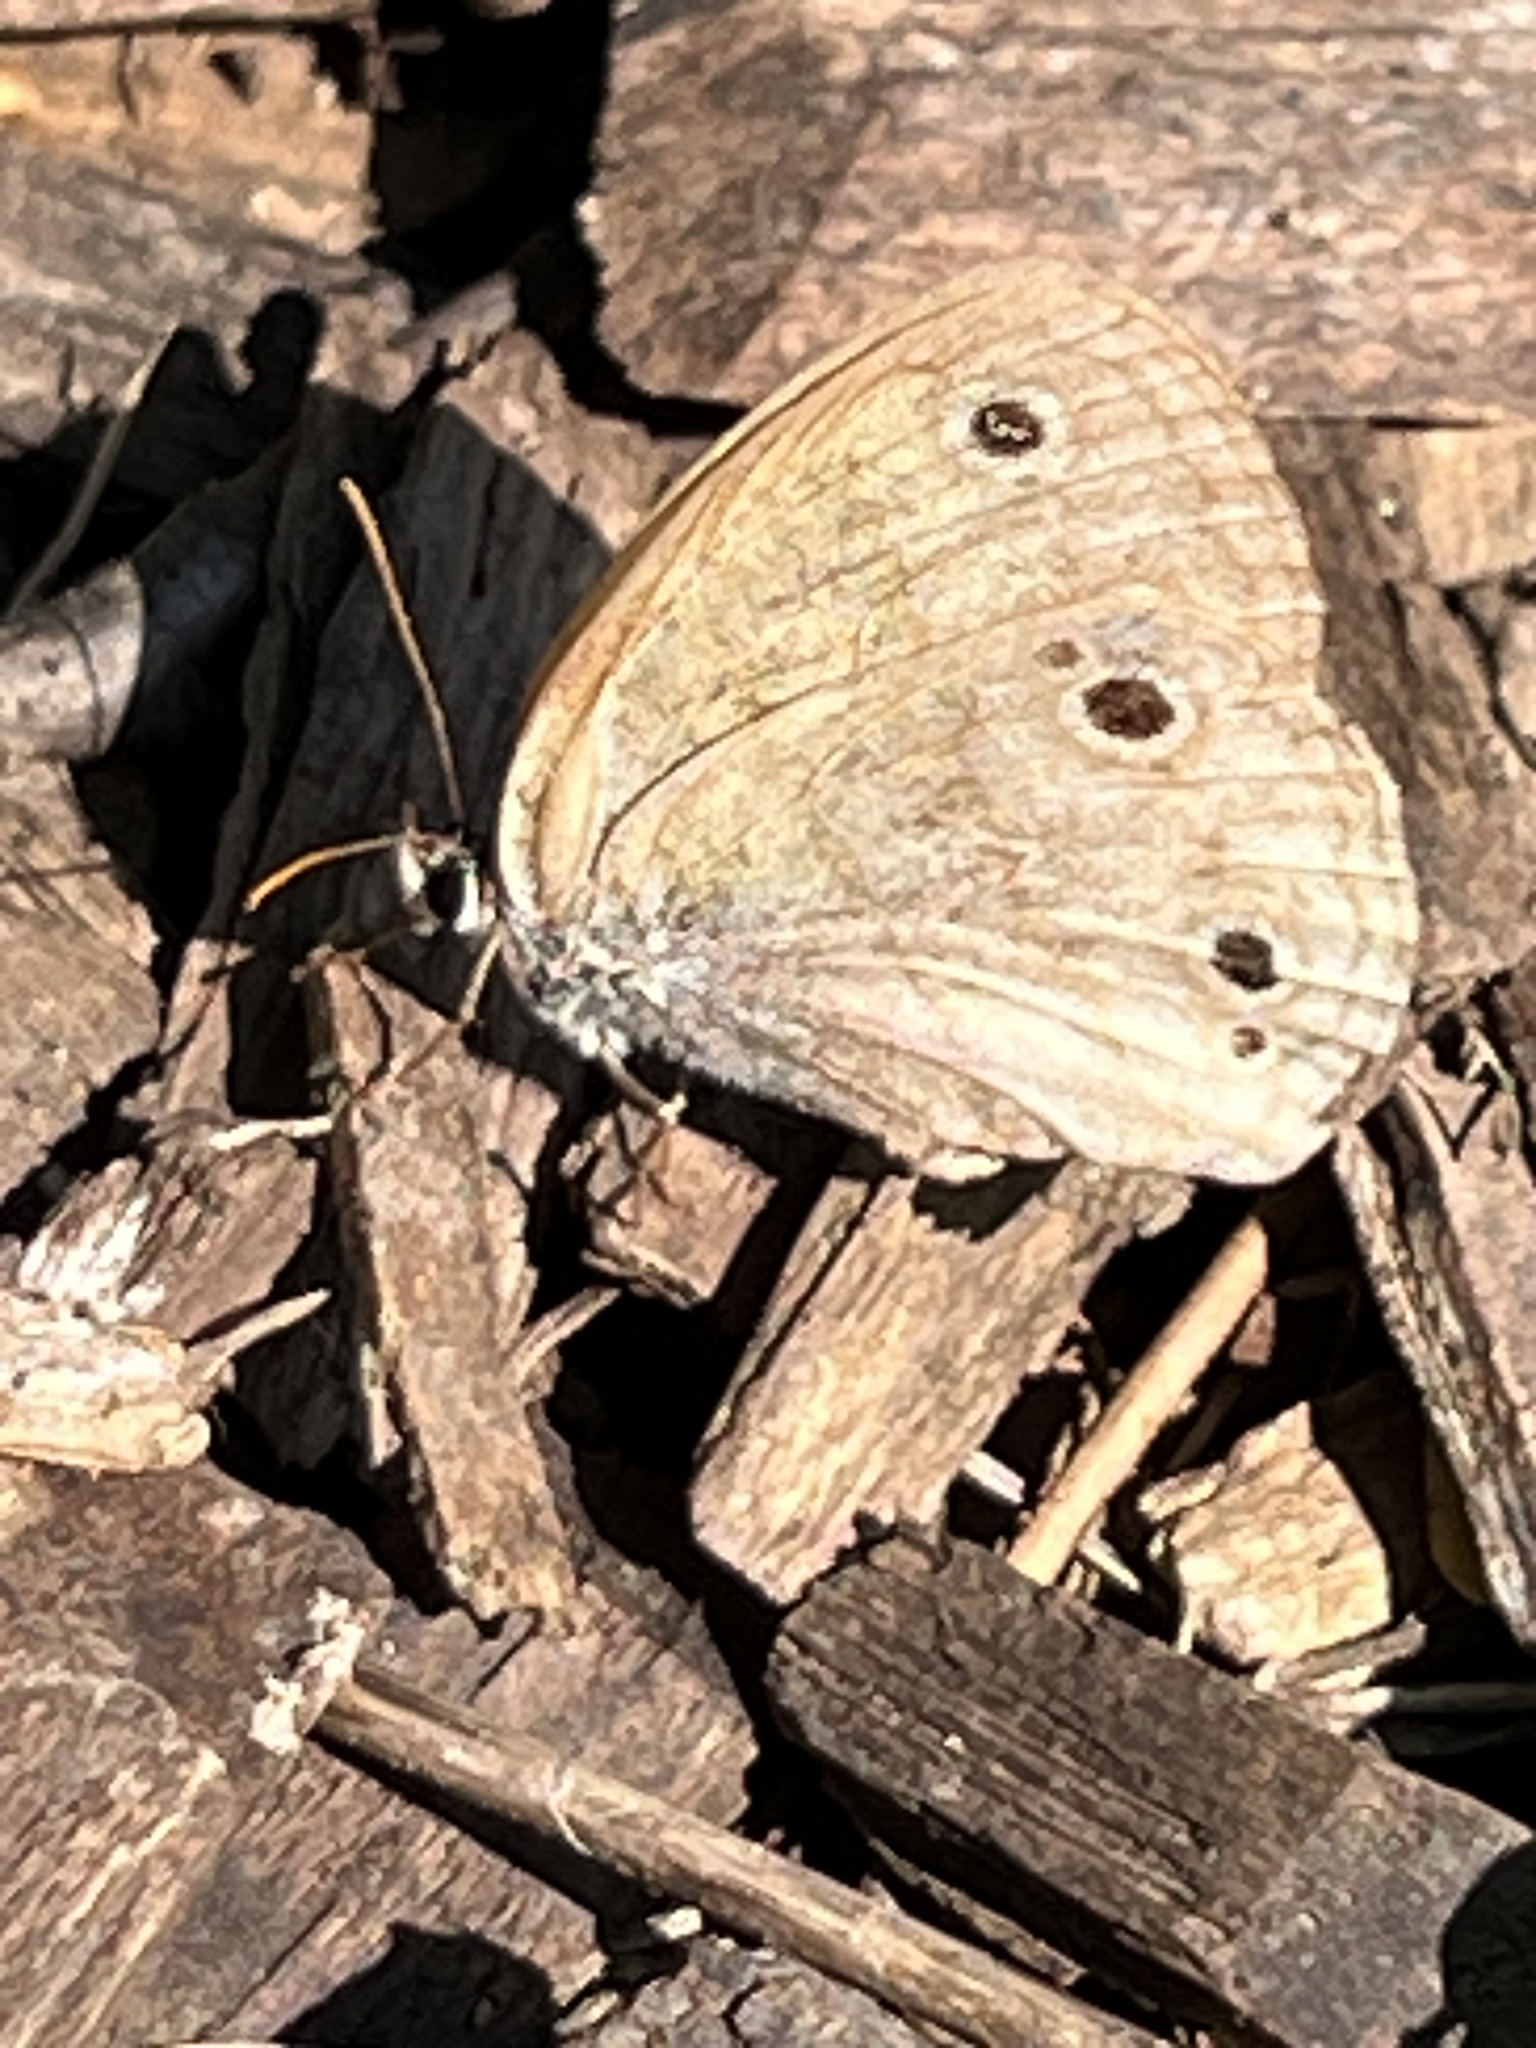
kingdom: Animalia
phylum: Arthropoda
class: Insecta
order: Lepidoptera
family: Nymphalidae
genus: Euptychia
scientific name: Euptychia cymela
